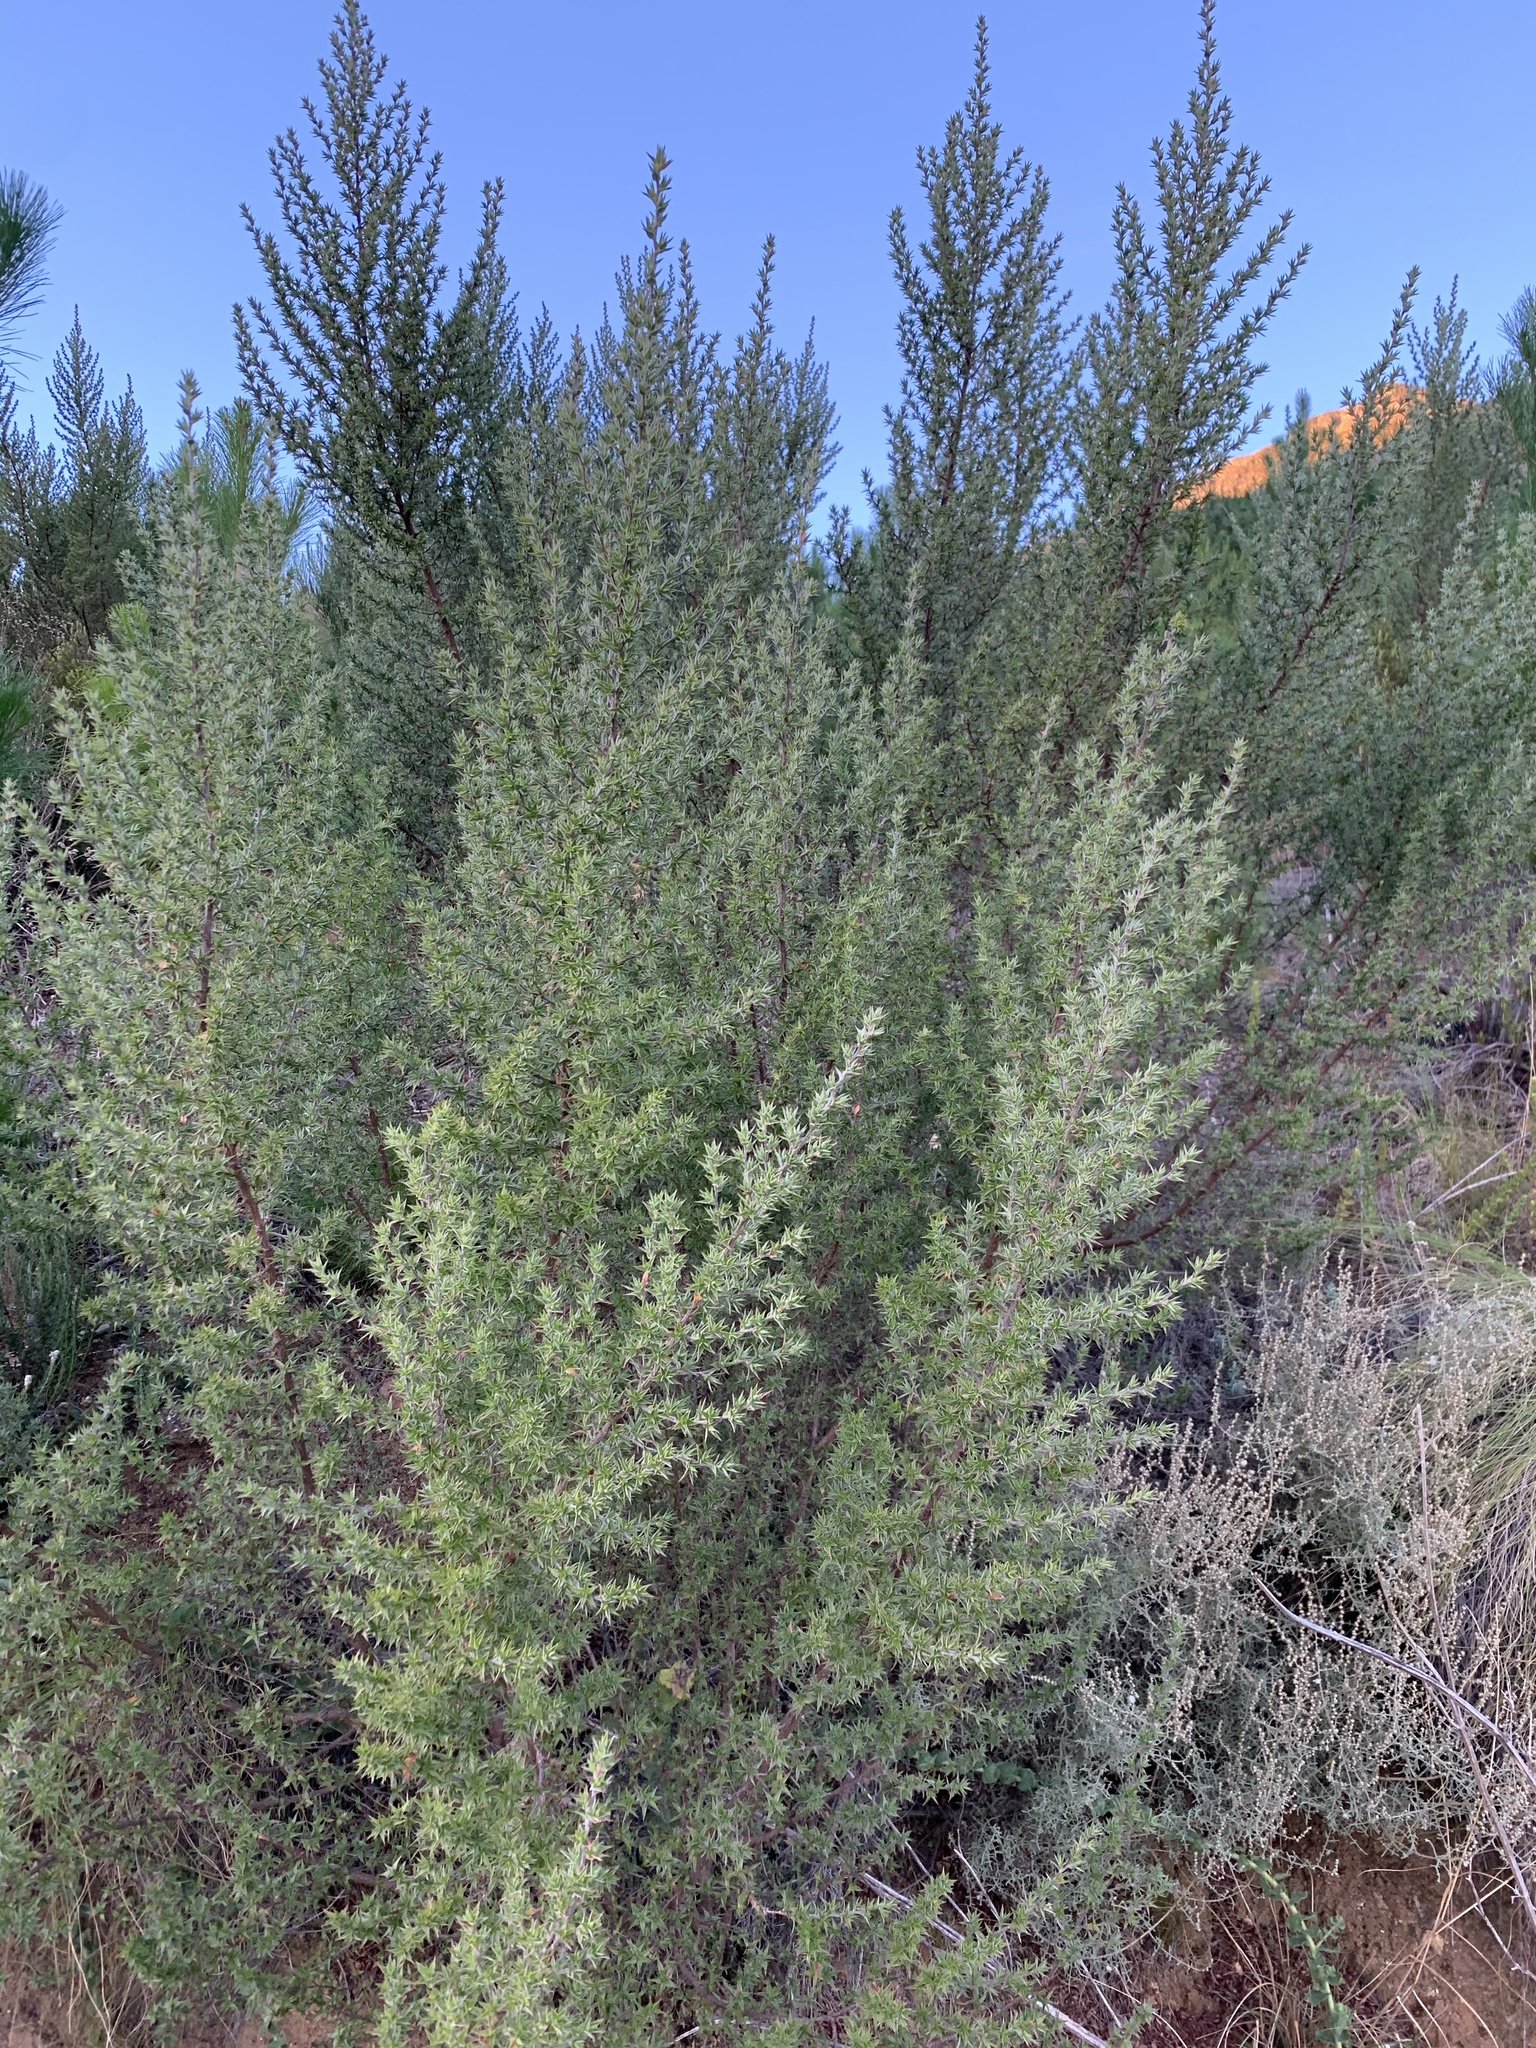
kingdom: Plantae
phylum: Tracheophyta
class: Magnoliopsida
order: Rosales
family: Rosaceae
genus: Cliffortia
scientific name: Cliffortia ruscifolia
